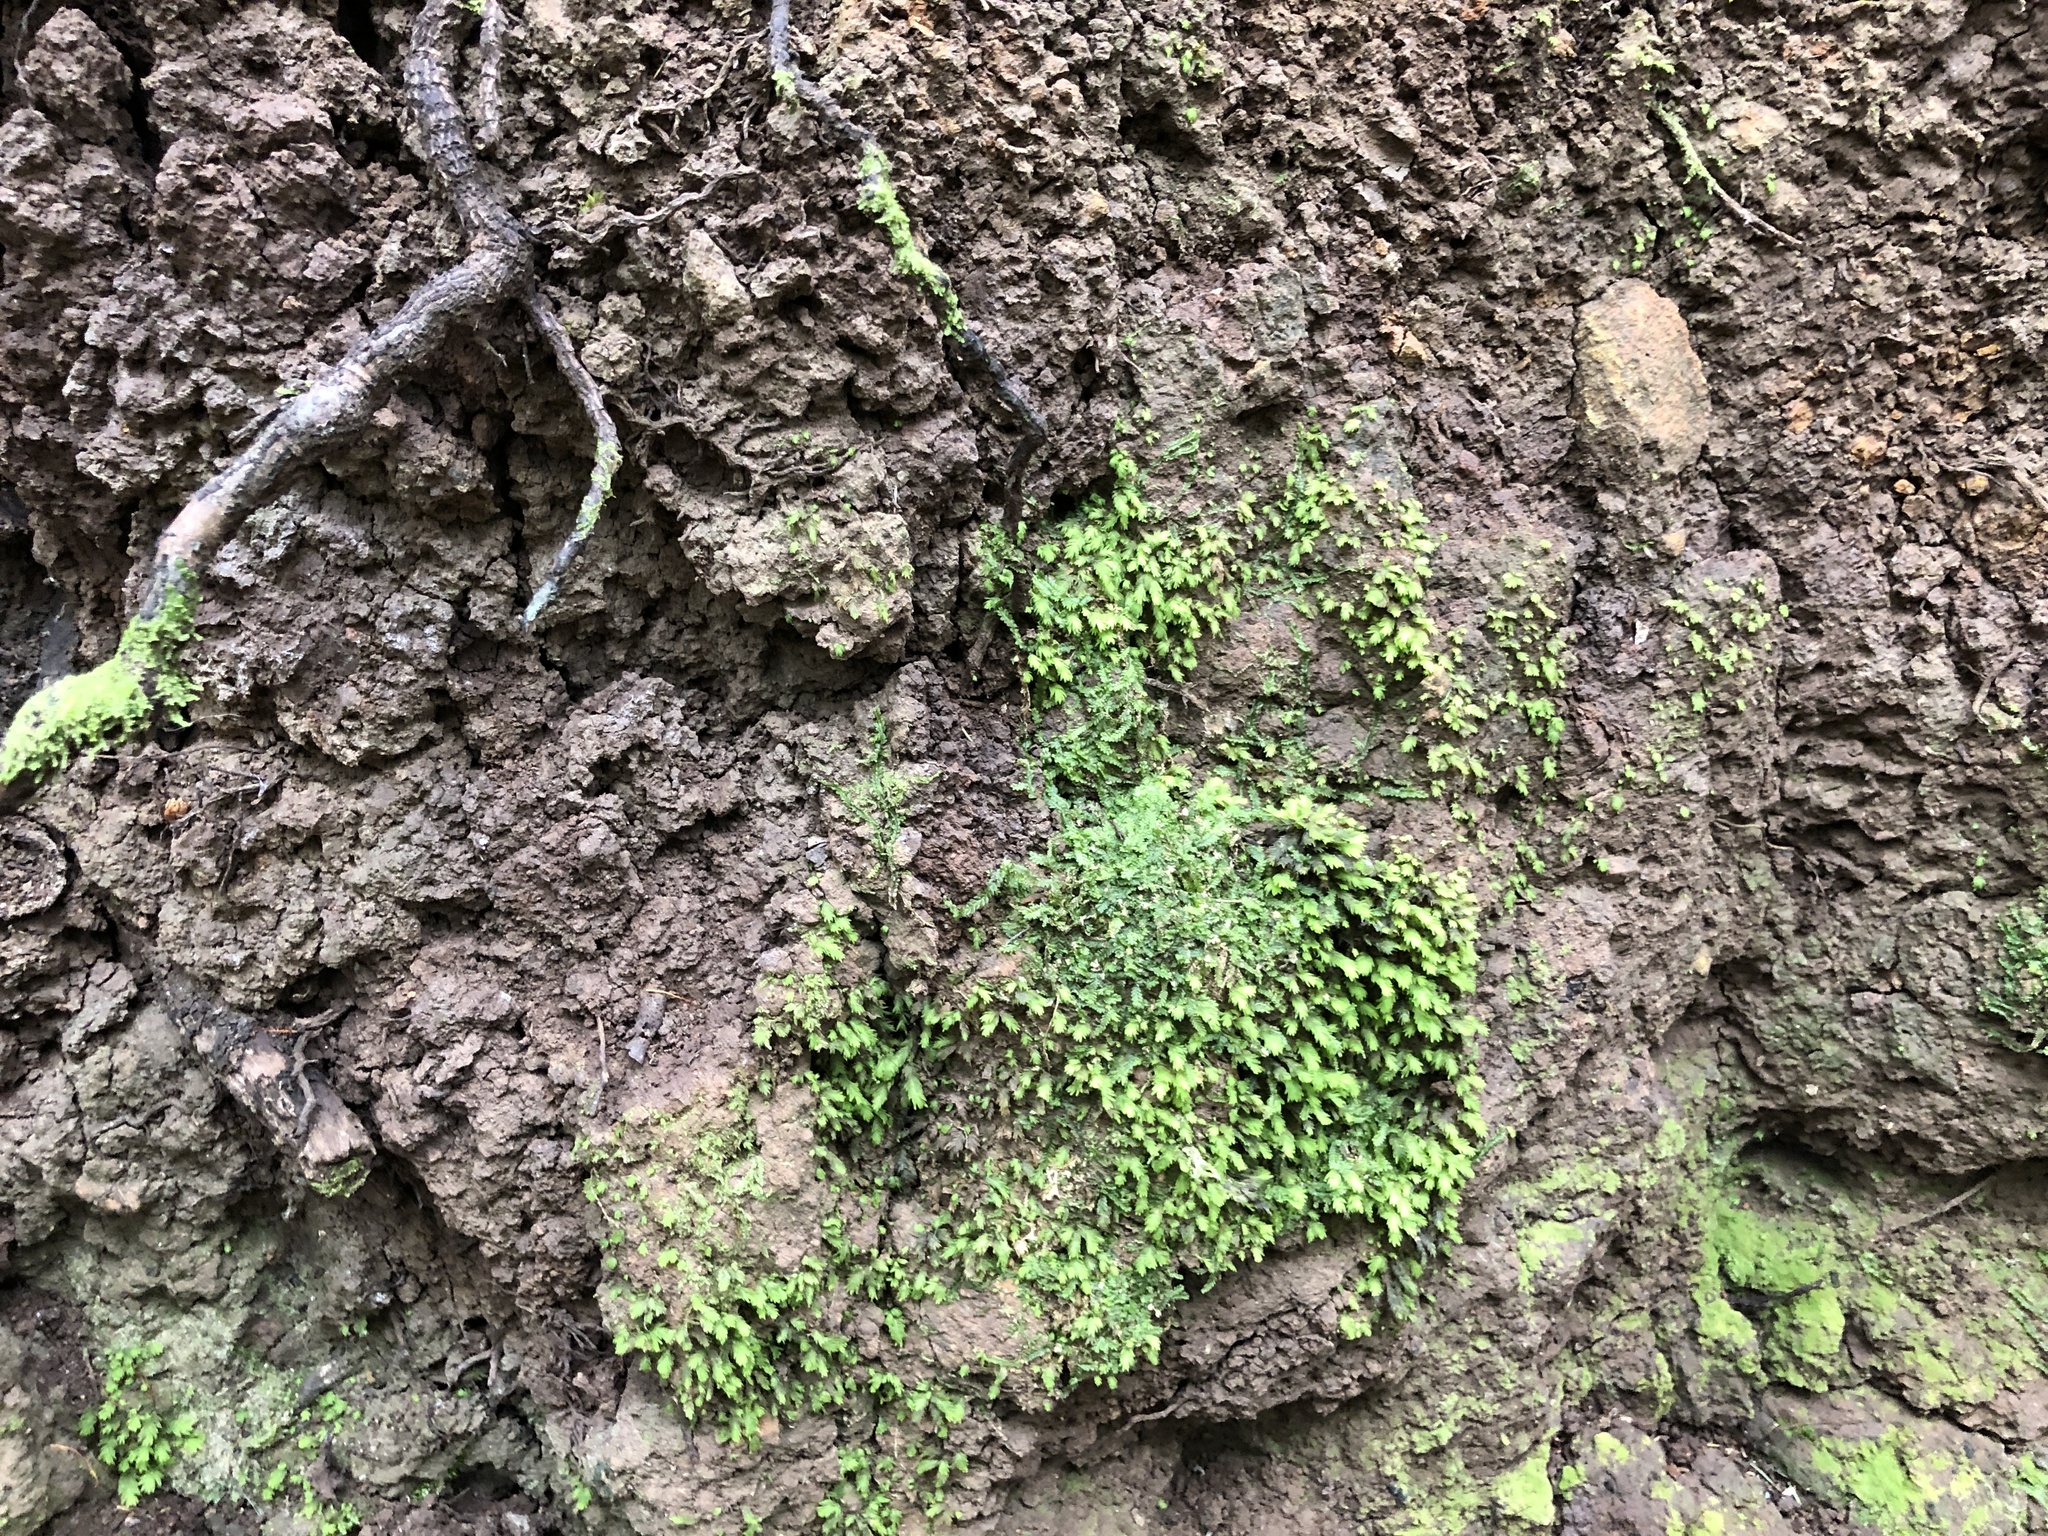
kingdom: Plantae
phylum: Marchantiophyta
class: Jungermanniopsida
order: Jungermanniales
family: Saccogynaceae
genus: Saccogyna
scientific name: Saccogyna viticulosa
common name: Straggling pouchwort
